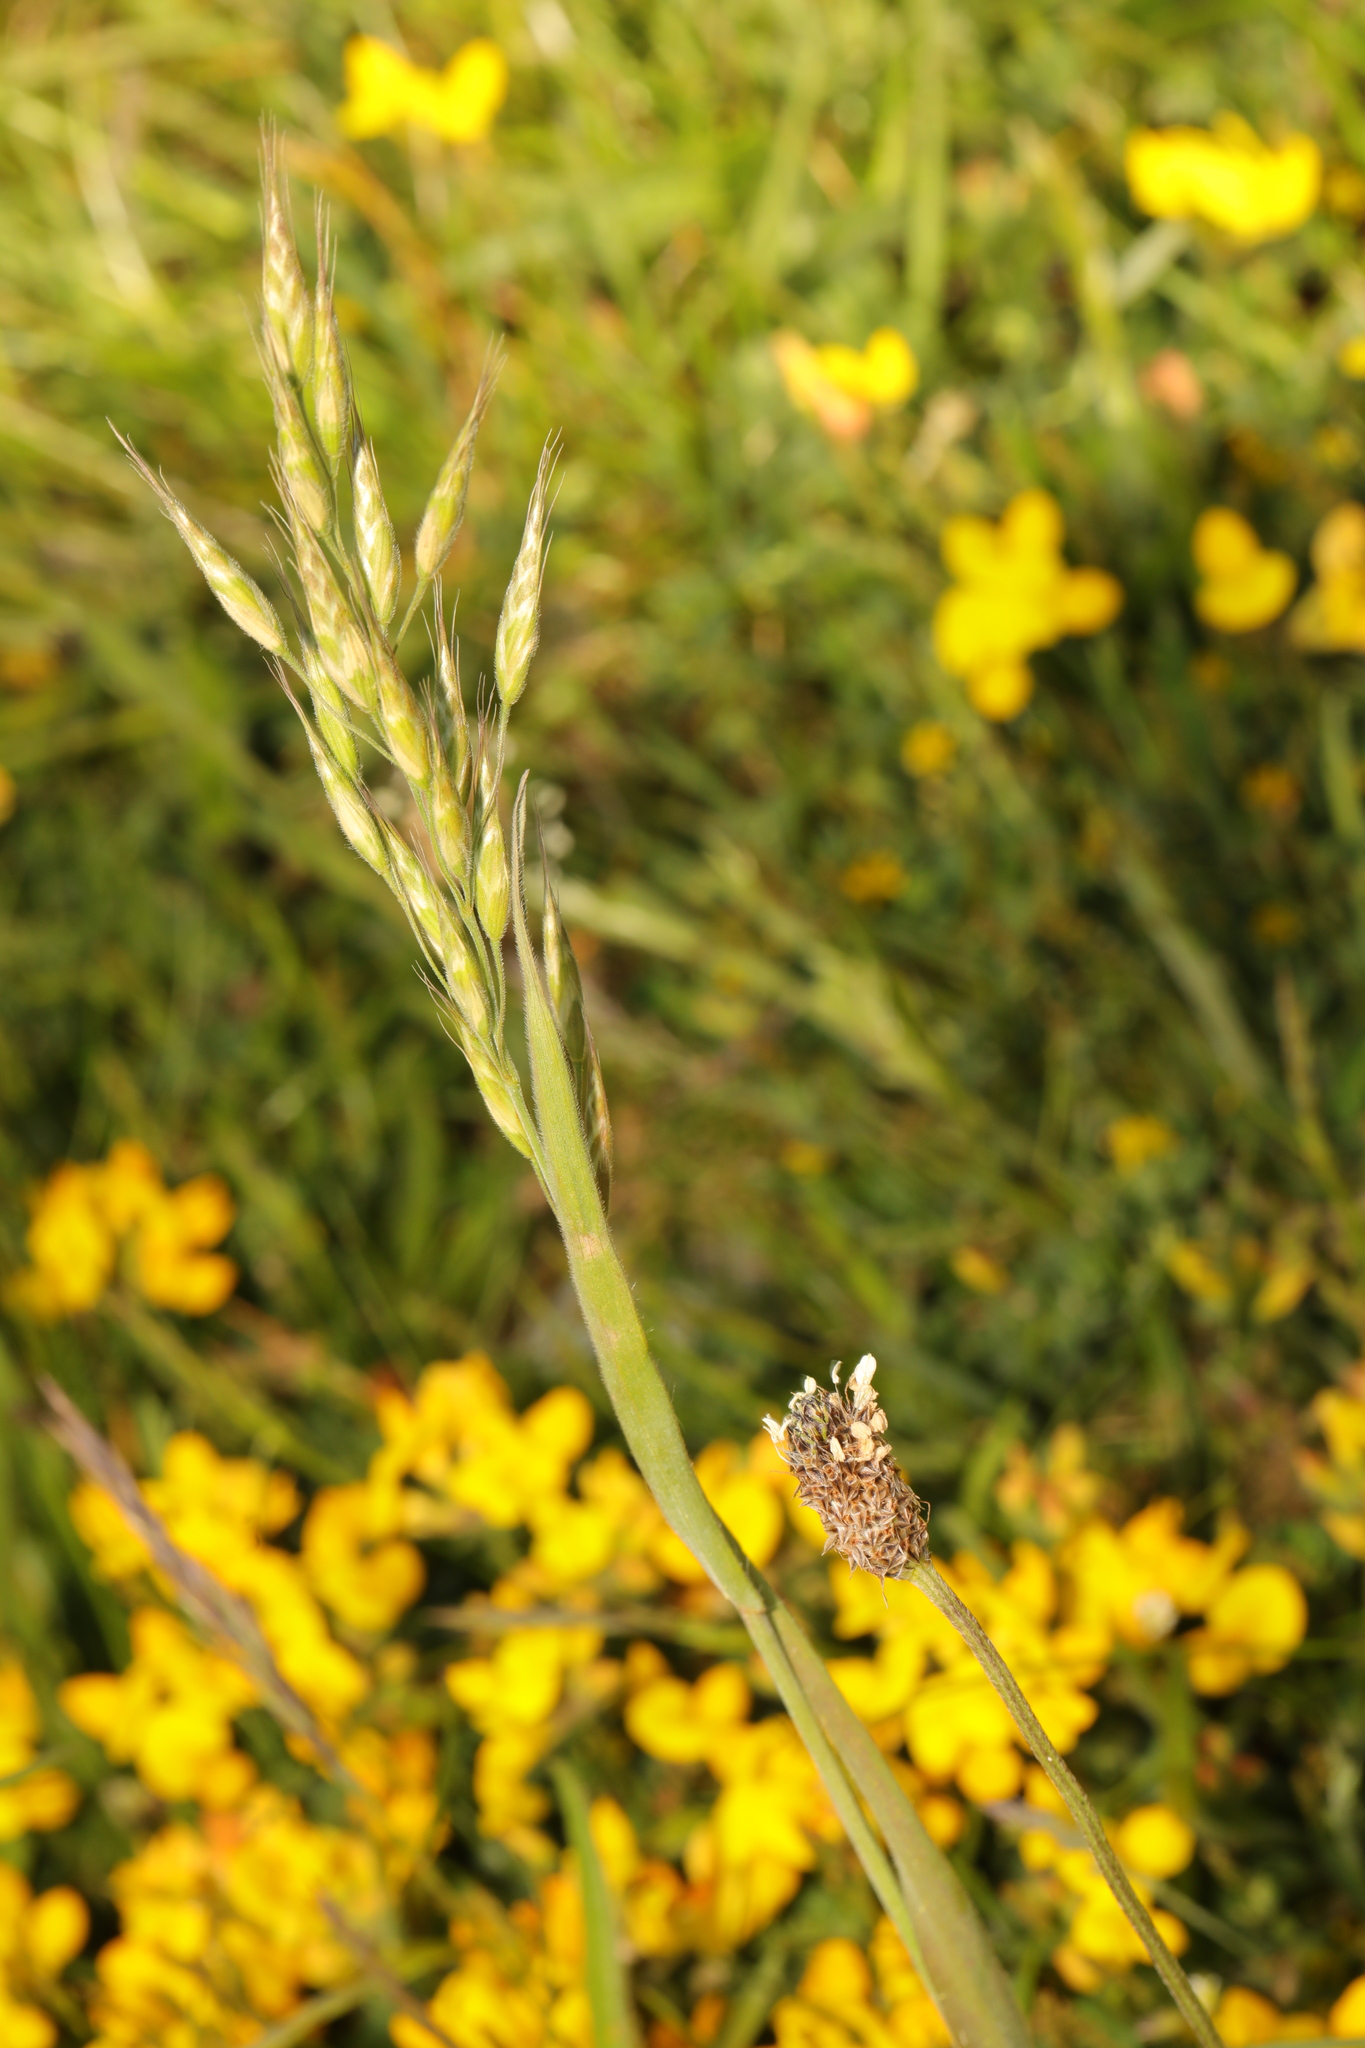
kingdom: Plantae
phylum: Tracheophyta
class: Liliopsida
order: Poales
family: Poaceae
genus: Bromus
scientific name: Bromus hordeaceus
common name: Soft brome
